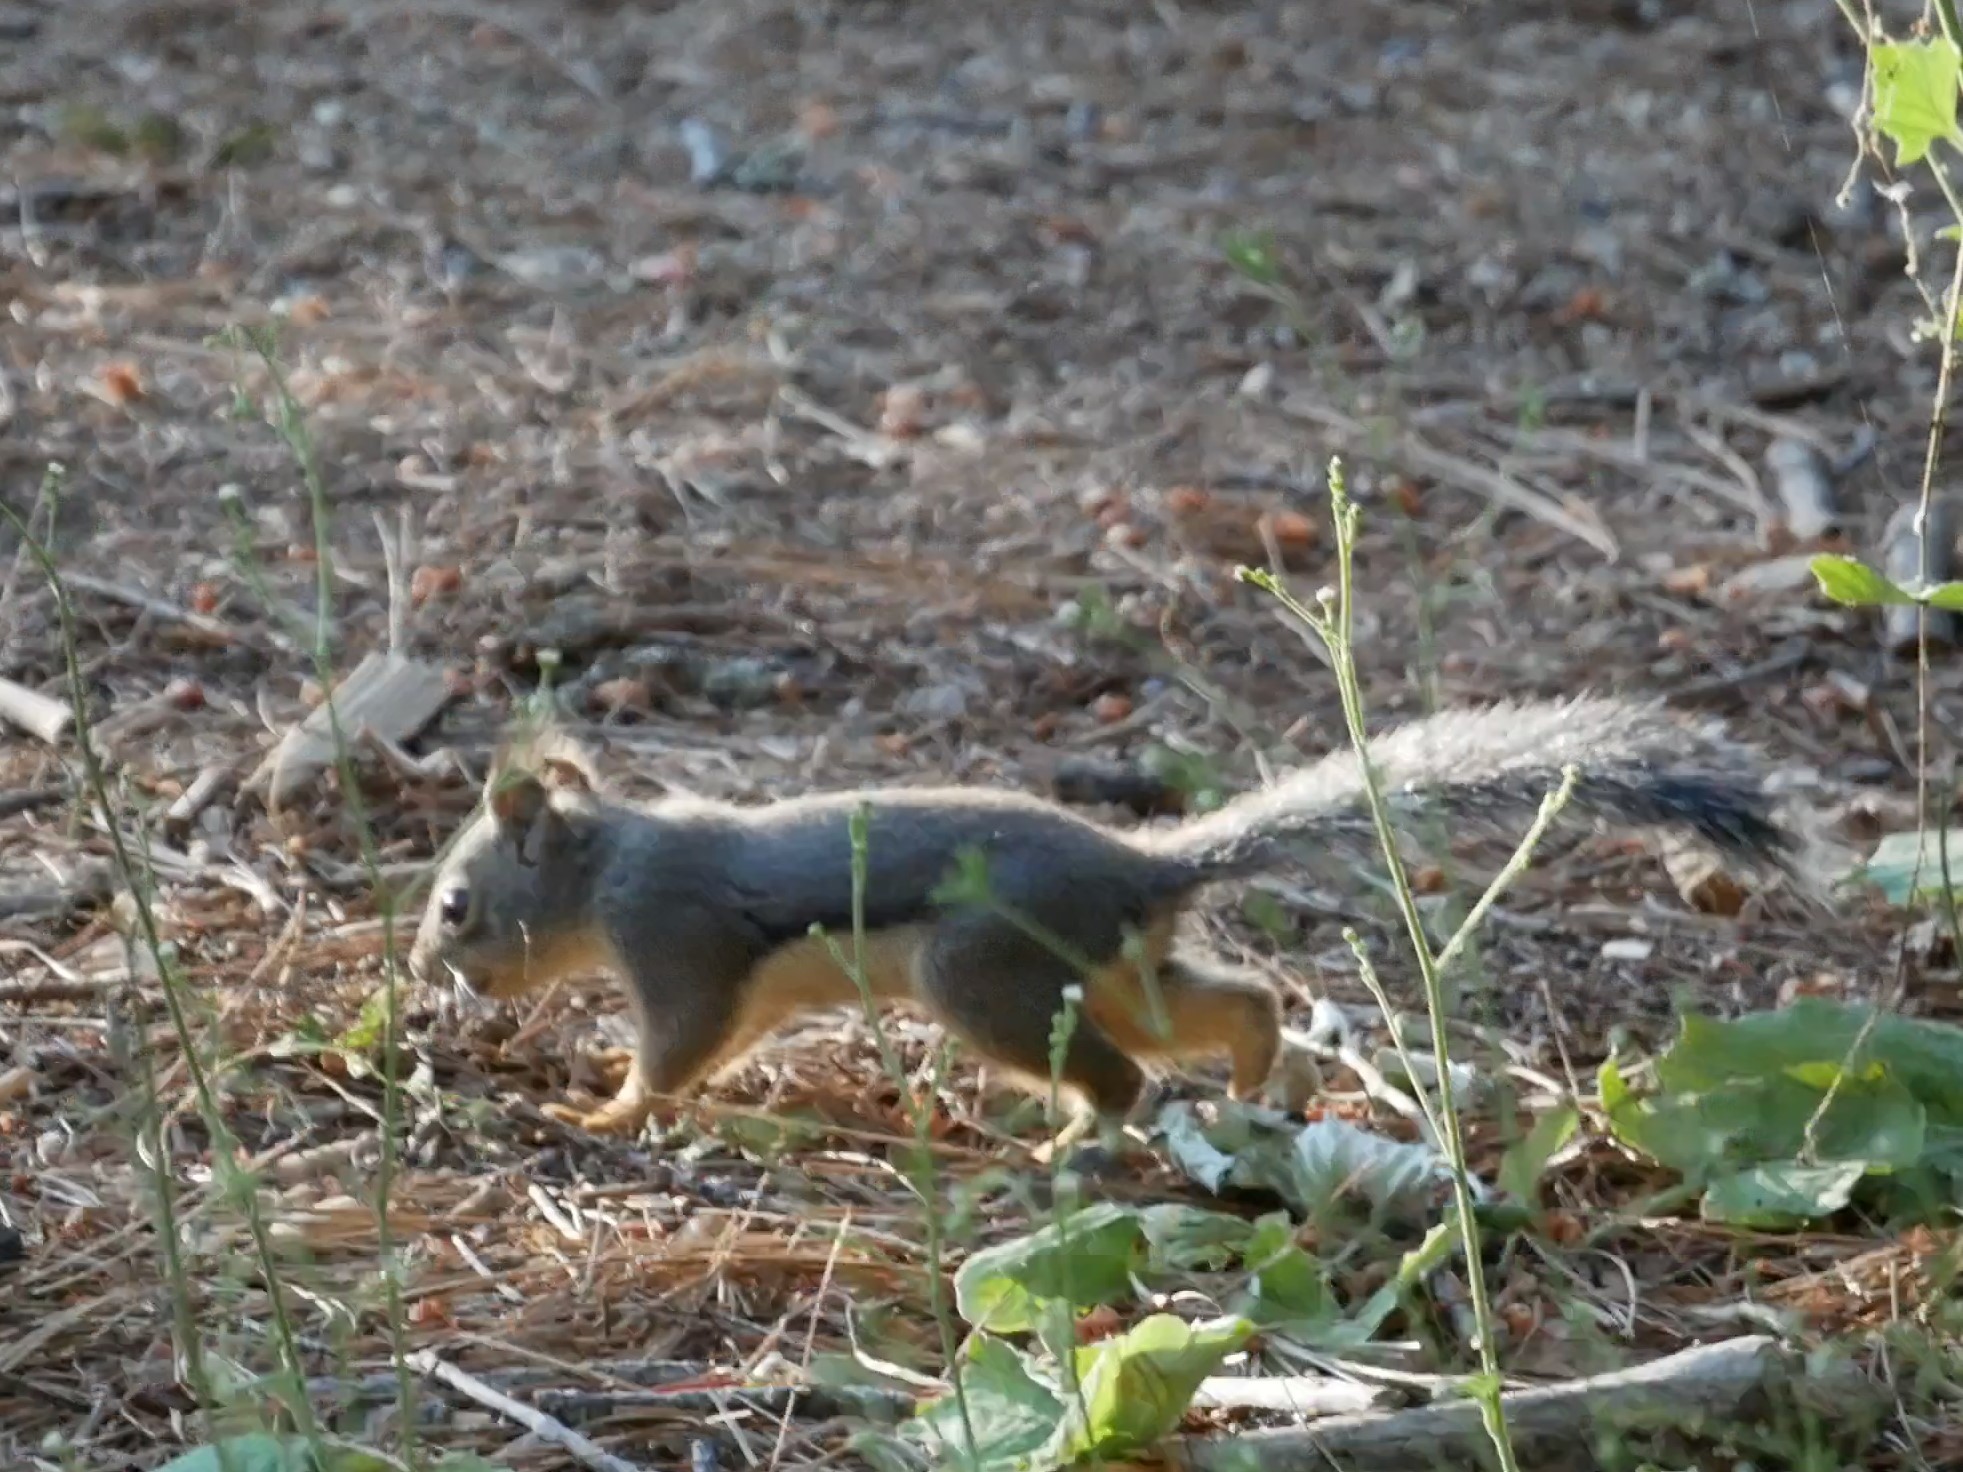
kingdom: Animalia
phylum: Chordata
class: Mammalia
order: Rodentia
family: Sciuridae
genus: Tamiasciurus
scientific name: Tamiasciurus douglasii
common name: Douglas's squirrel
